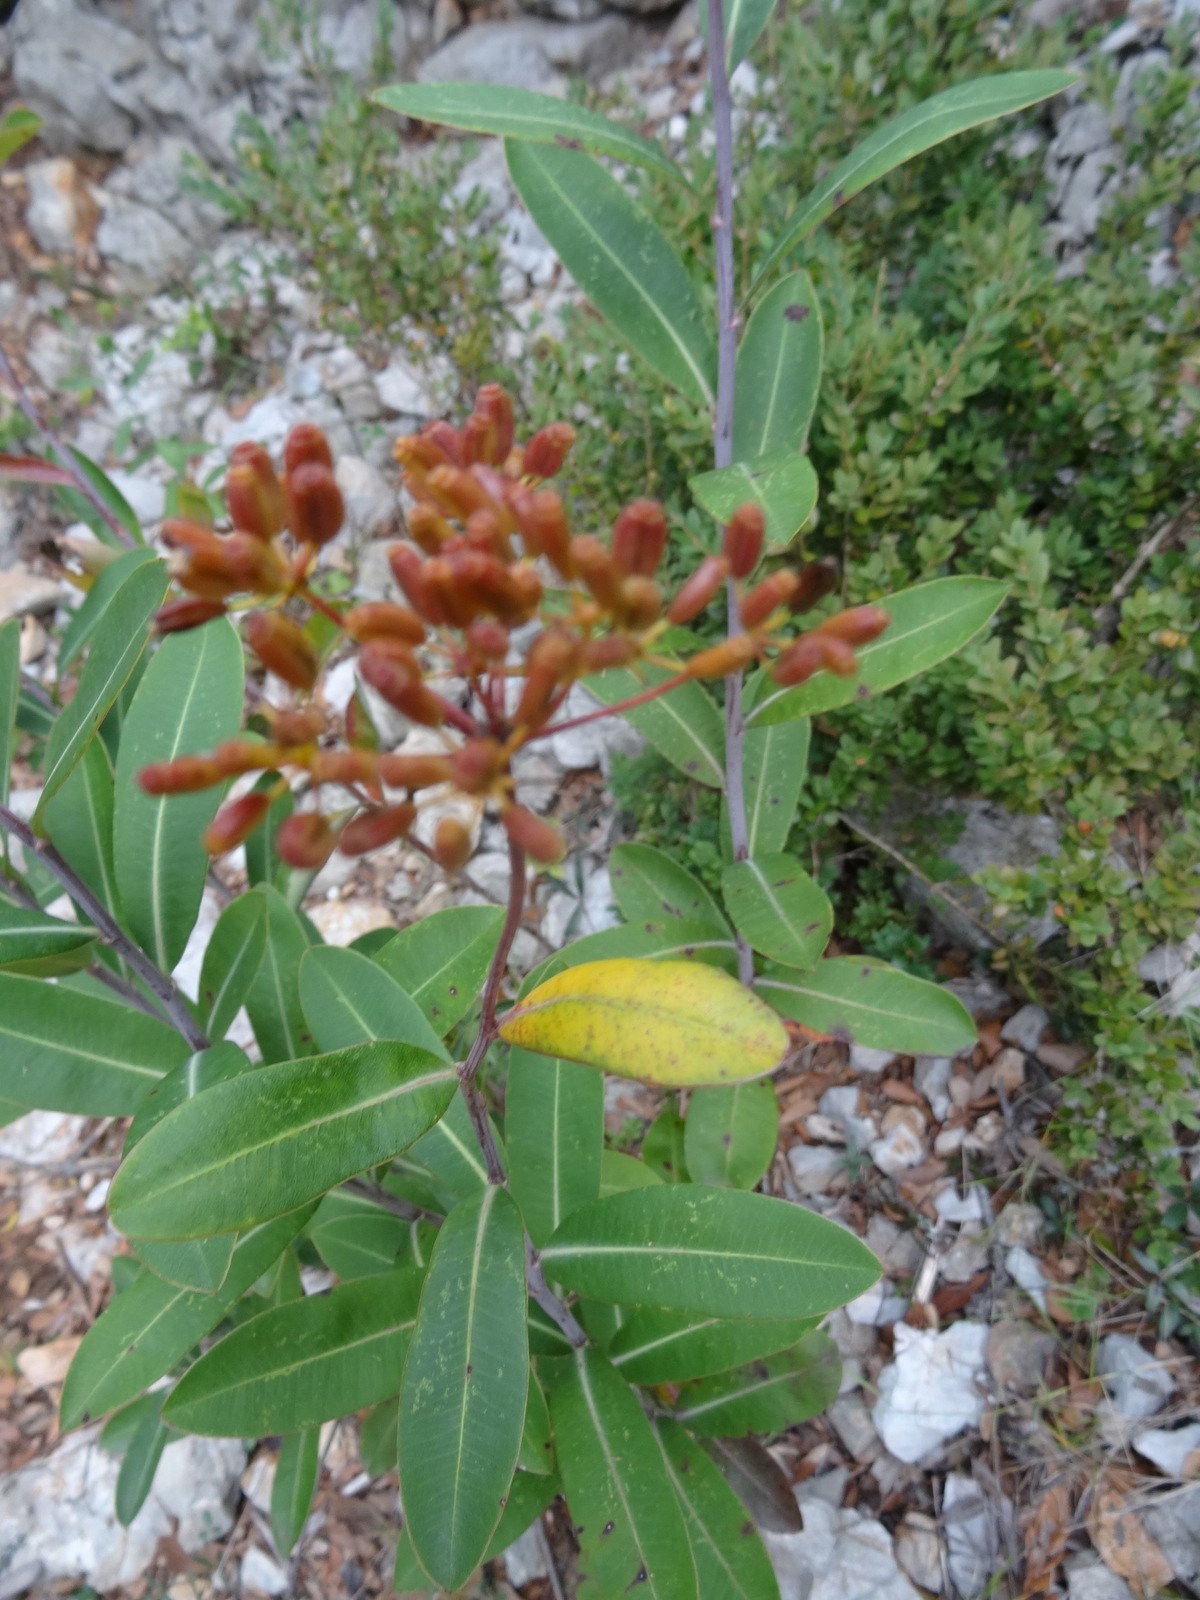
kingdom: Plantae
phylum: Tracheophyta
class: Magnoliopsida
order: Apiales
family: Apiaceae
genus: Bupleurum
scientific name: Bupleurum fruticosum
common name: Shrubby hare's-ear
